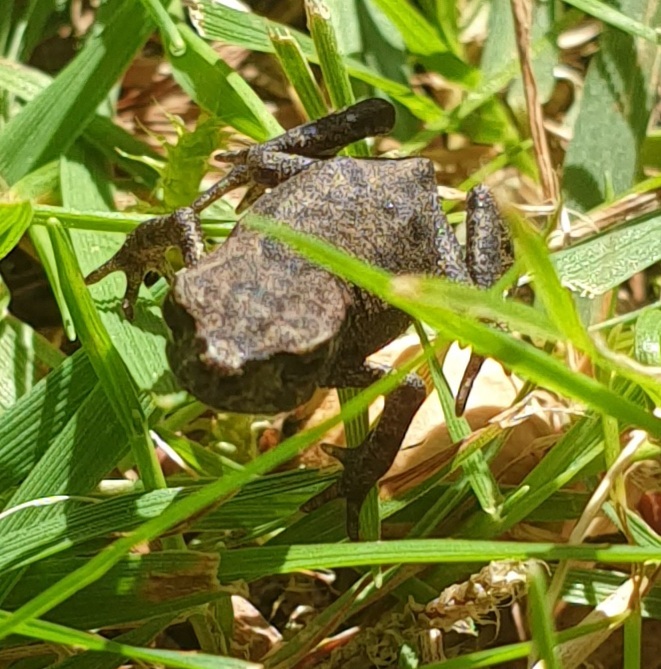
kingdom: Animalia
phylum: Chordata
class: Amphibia
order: Anura
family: Bufonidae
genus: Bufo
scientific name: Bufo bufo
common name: Common toad
